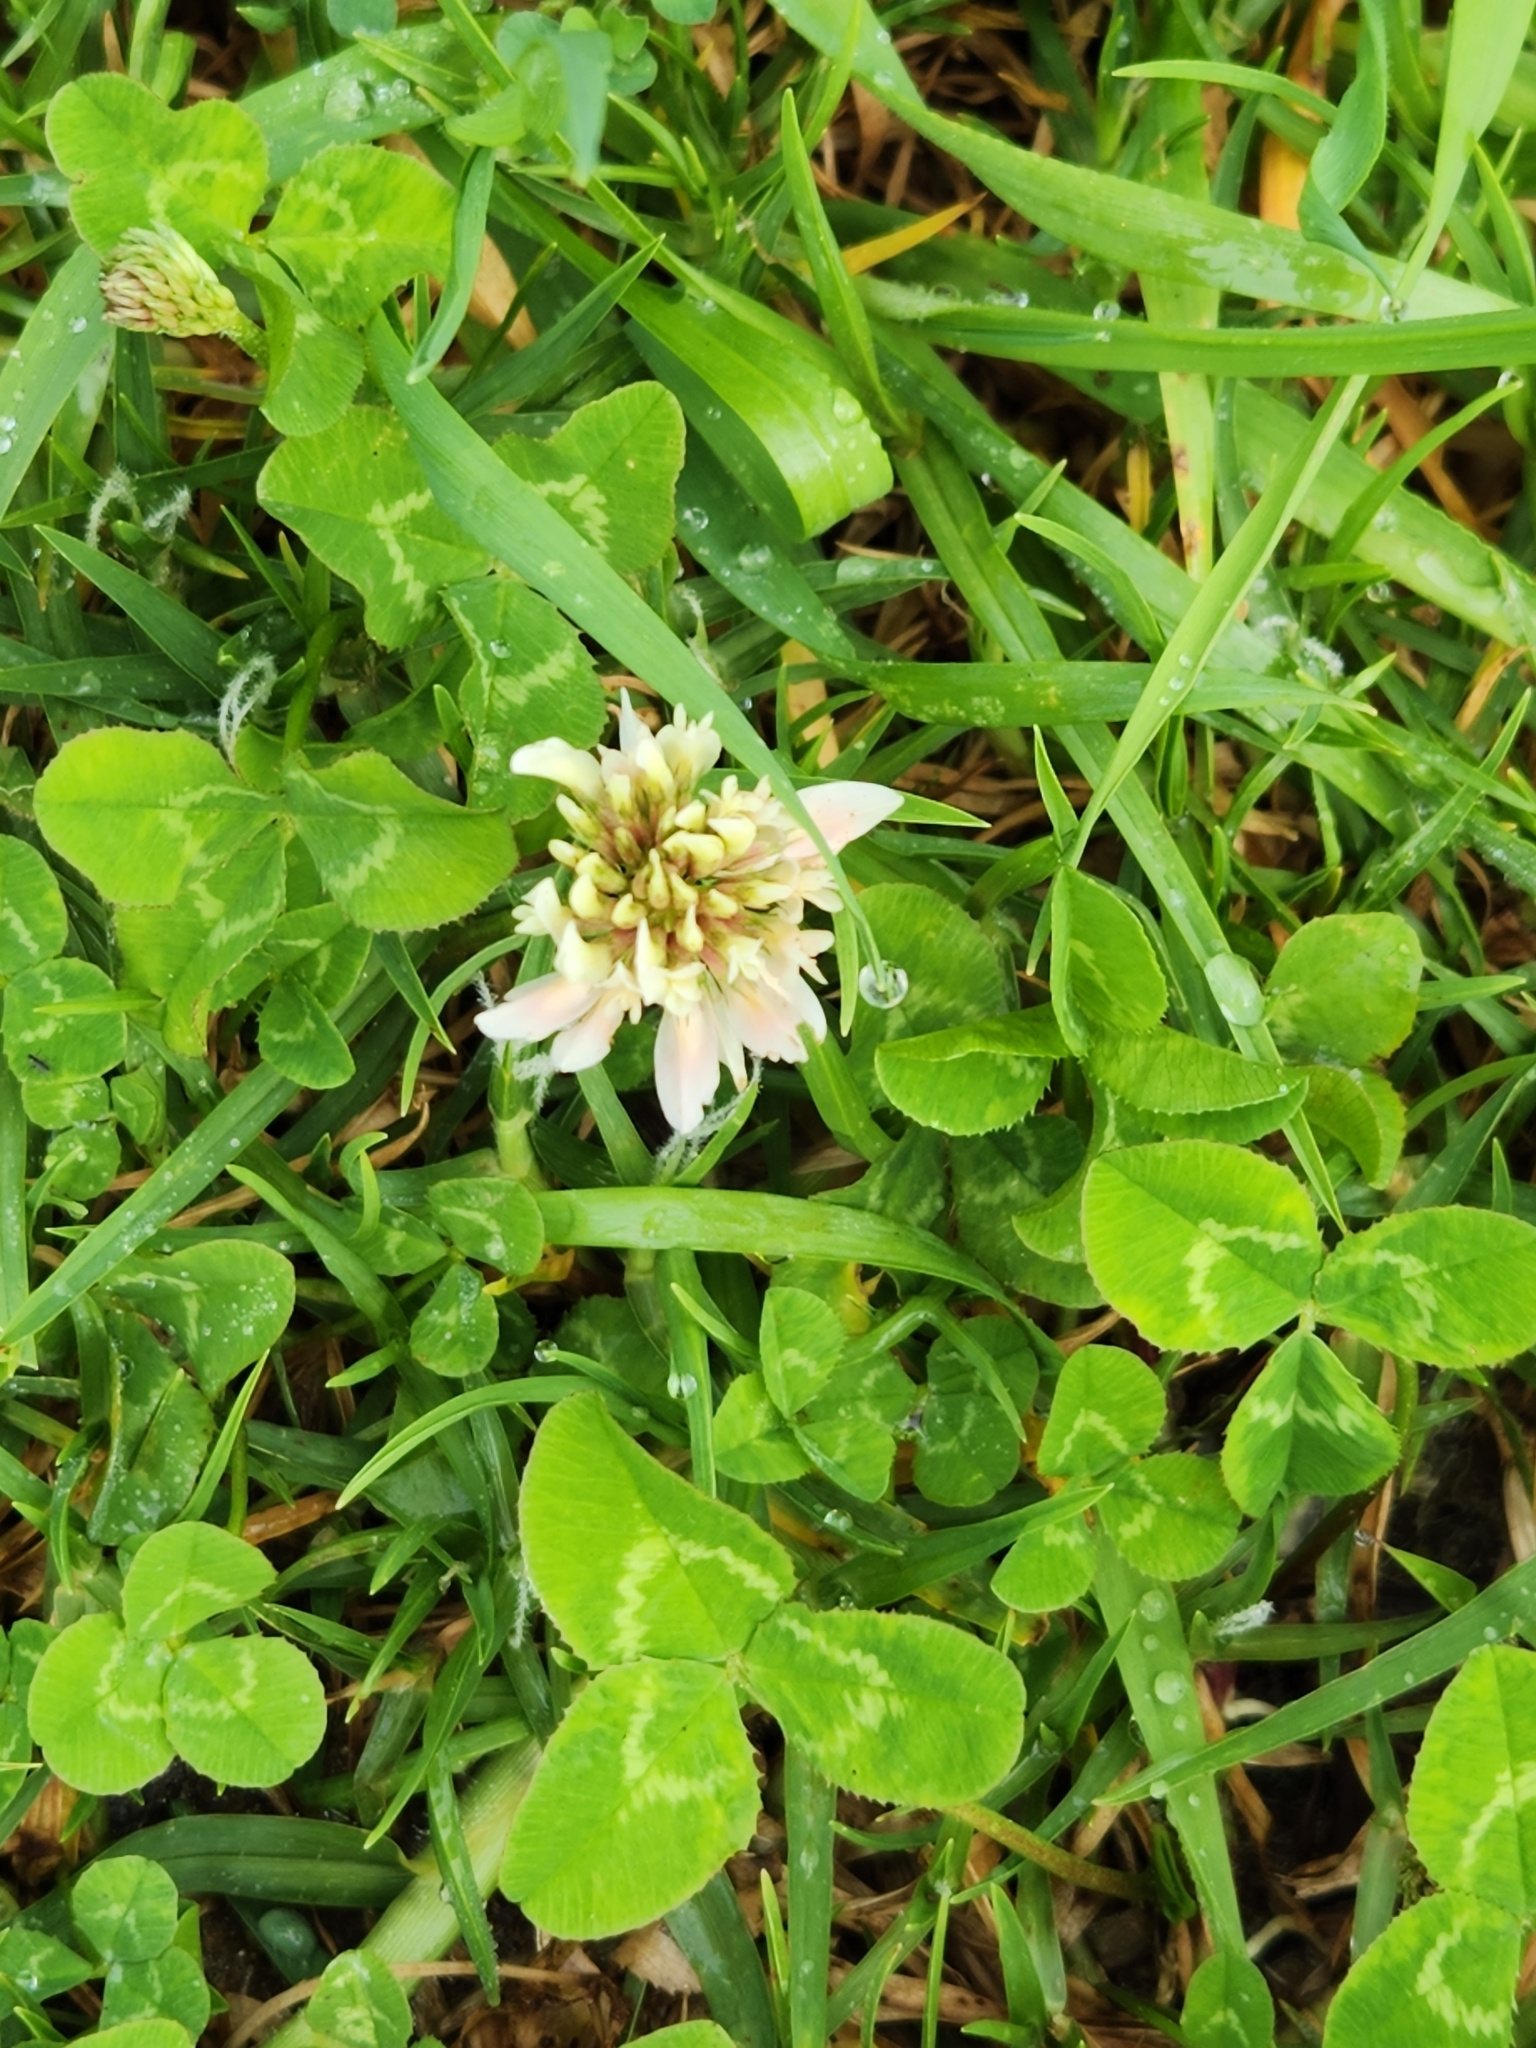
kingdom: Plantae
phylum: Tracheophyta
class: Magnoliopsida
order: Fabales
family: Fabaceae
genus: Trifolium
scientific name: Trifolium repens
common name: White clover
